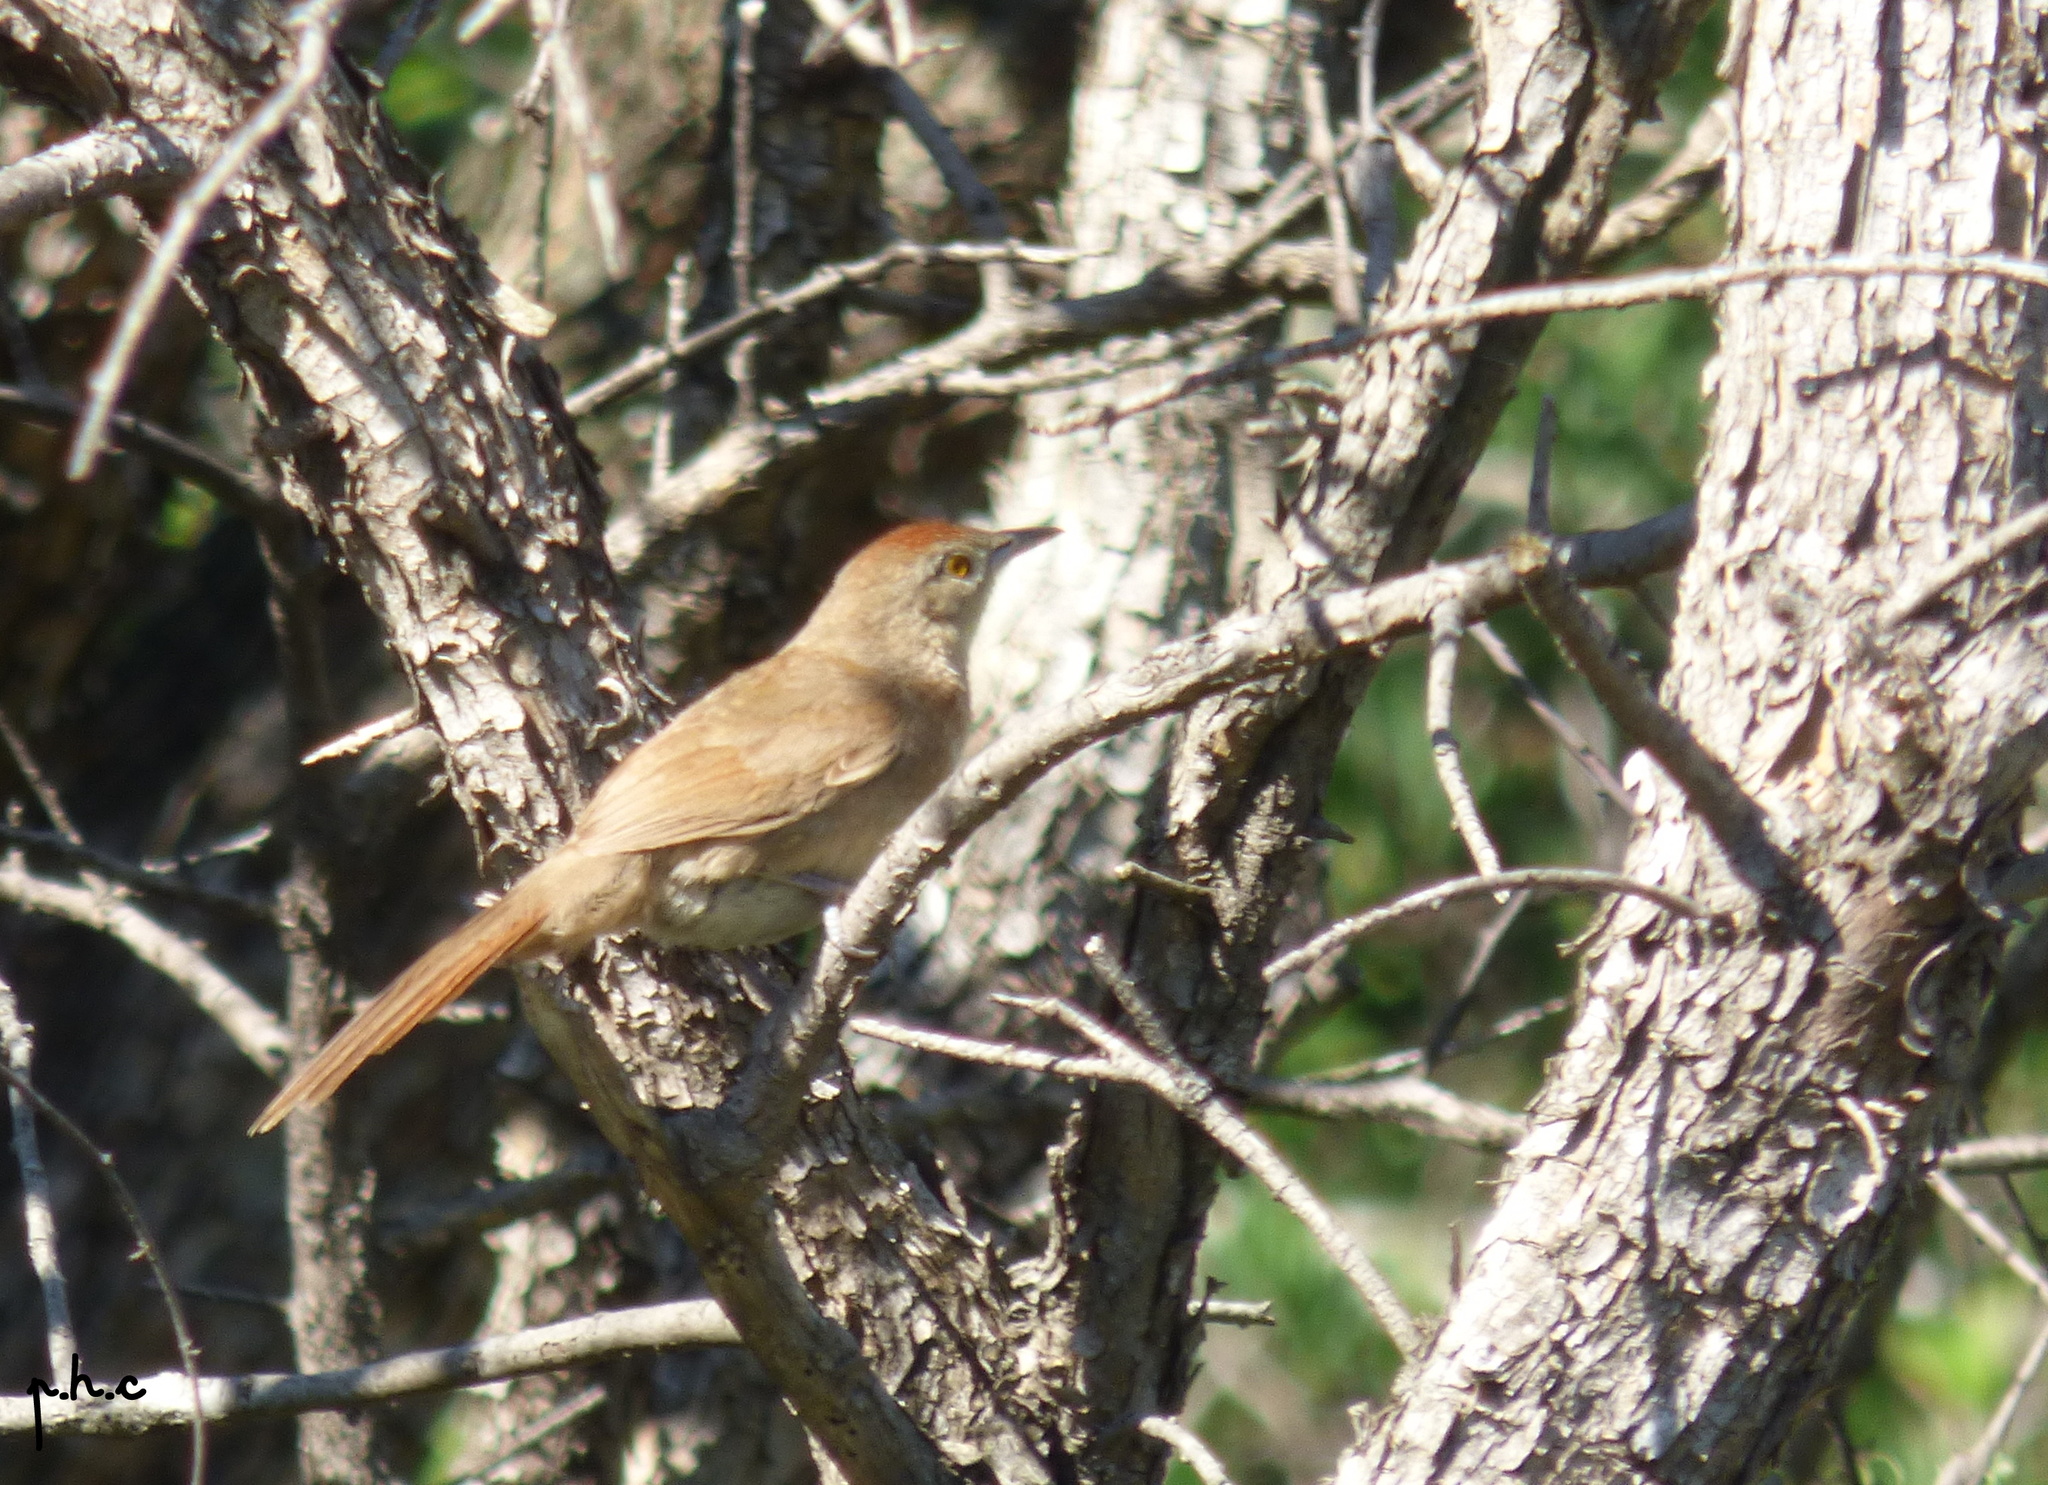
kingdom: Animalia
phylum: Chordata
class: Aves
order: Passeriformes
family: Furnariidae
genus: Phacellodomus
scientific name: Phacellodomus striaticollis
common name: Freckle-breasted thornbird
